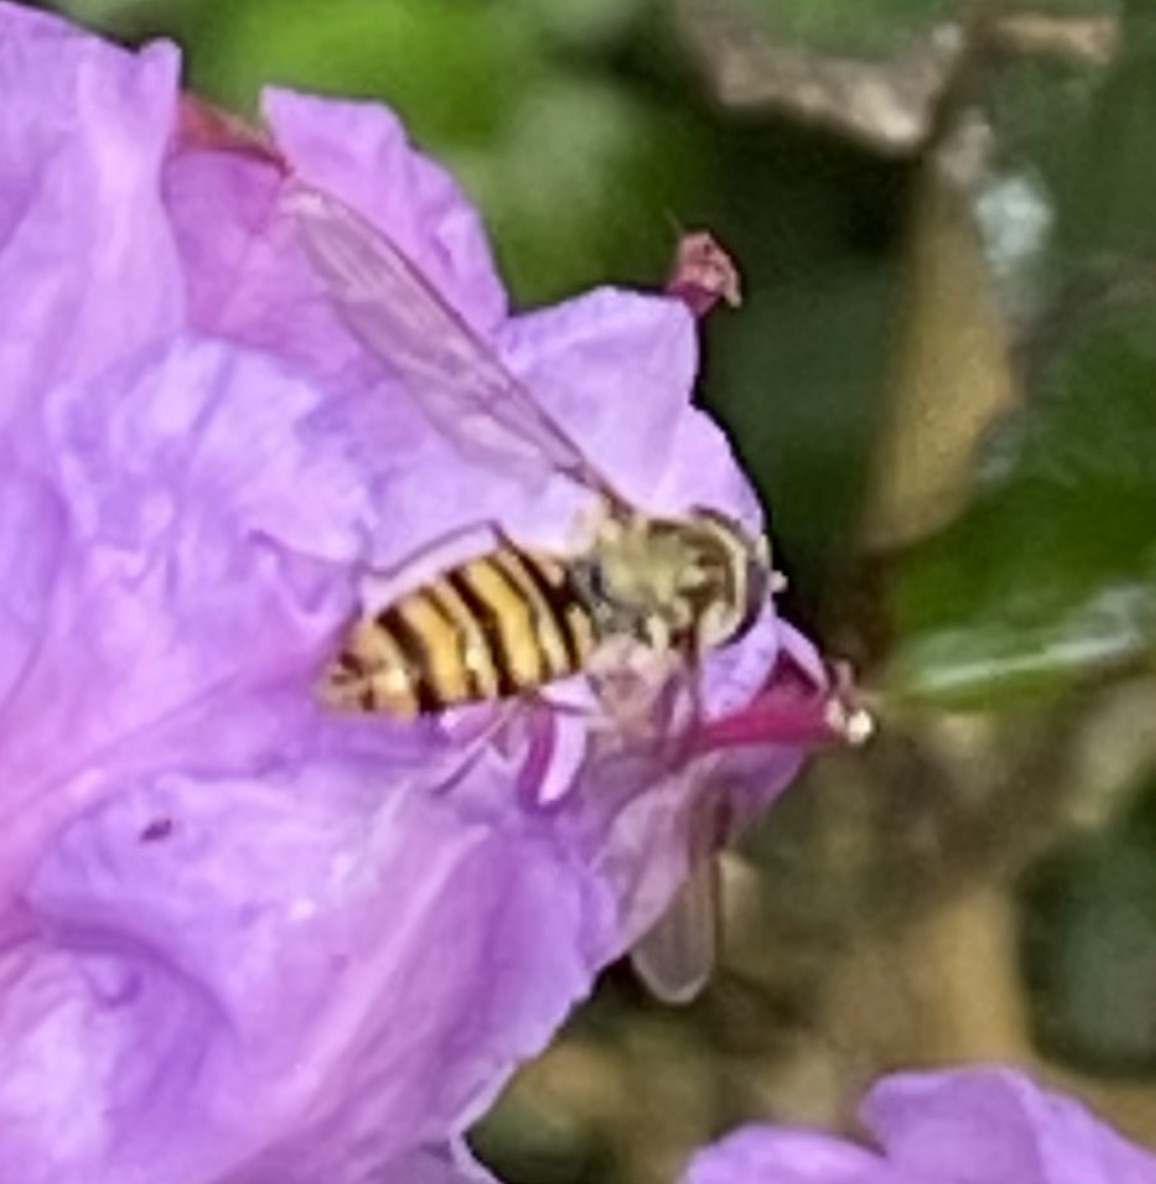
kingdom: Animalia
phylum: Arthropoda
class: Insecta
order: Diptera
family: Syrphidae
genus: Episyrphus
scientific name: Episyrphus balteatus
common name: Marmalade hoverfly
